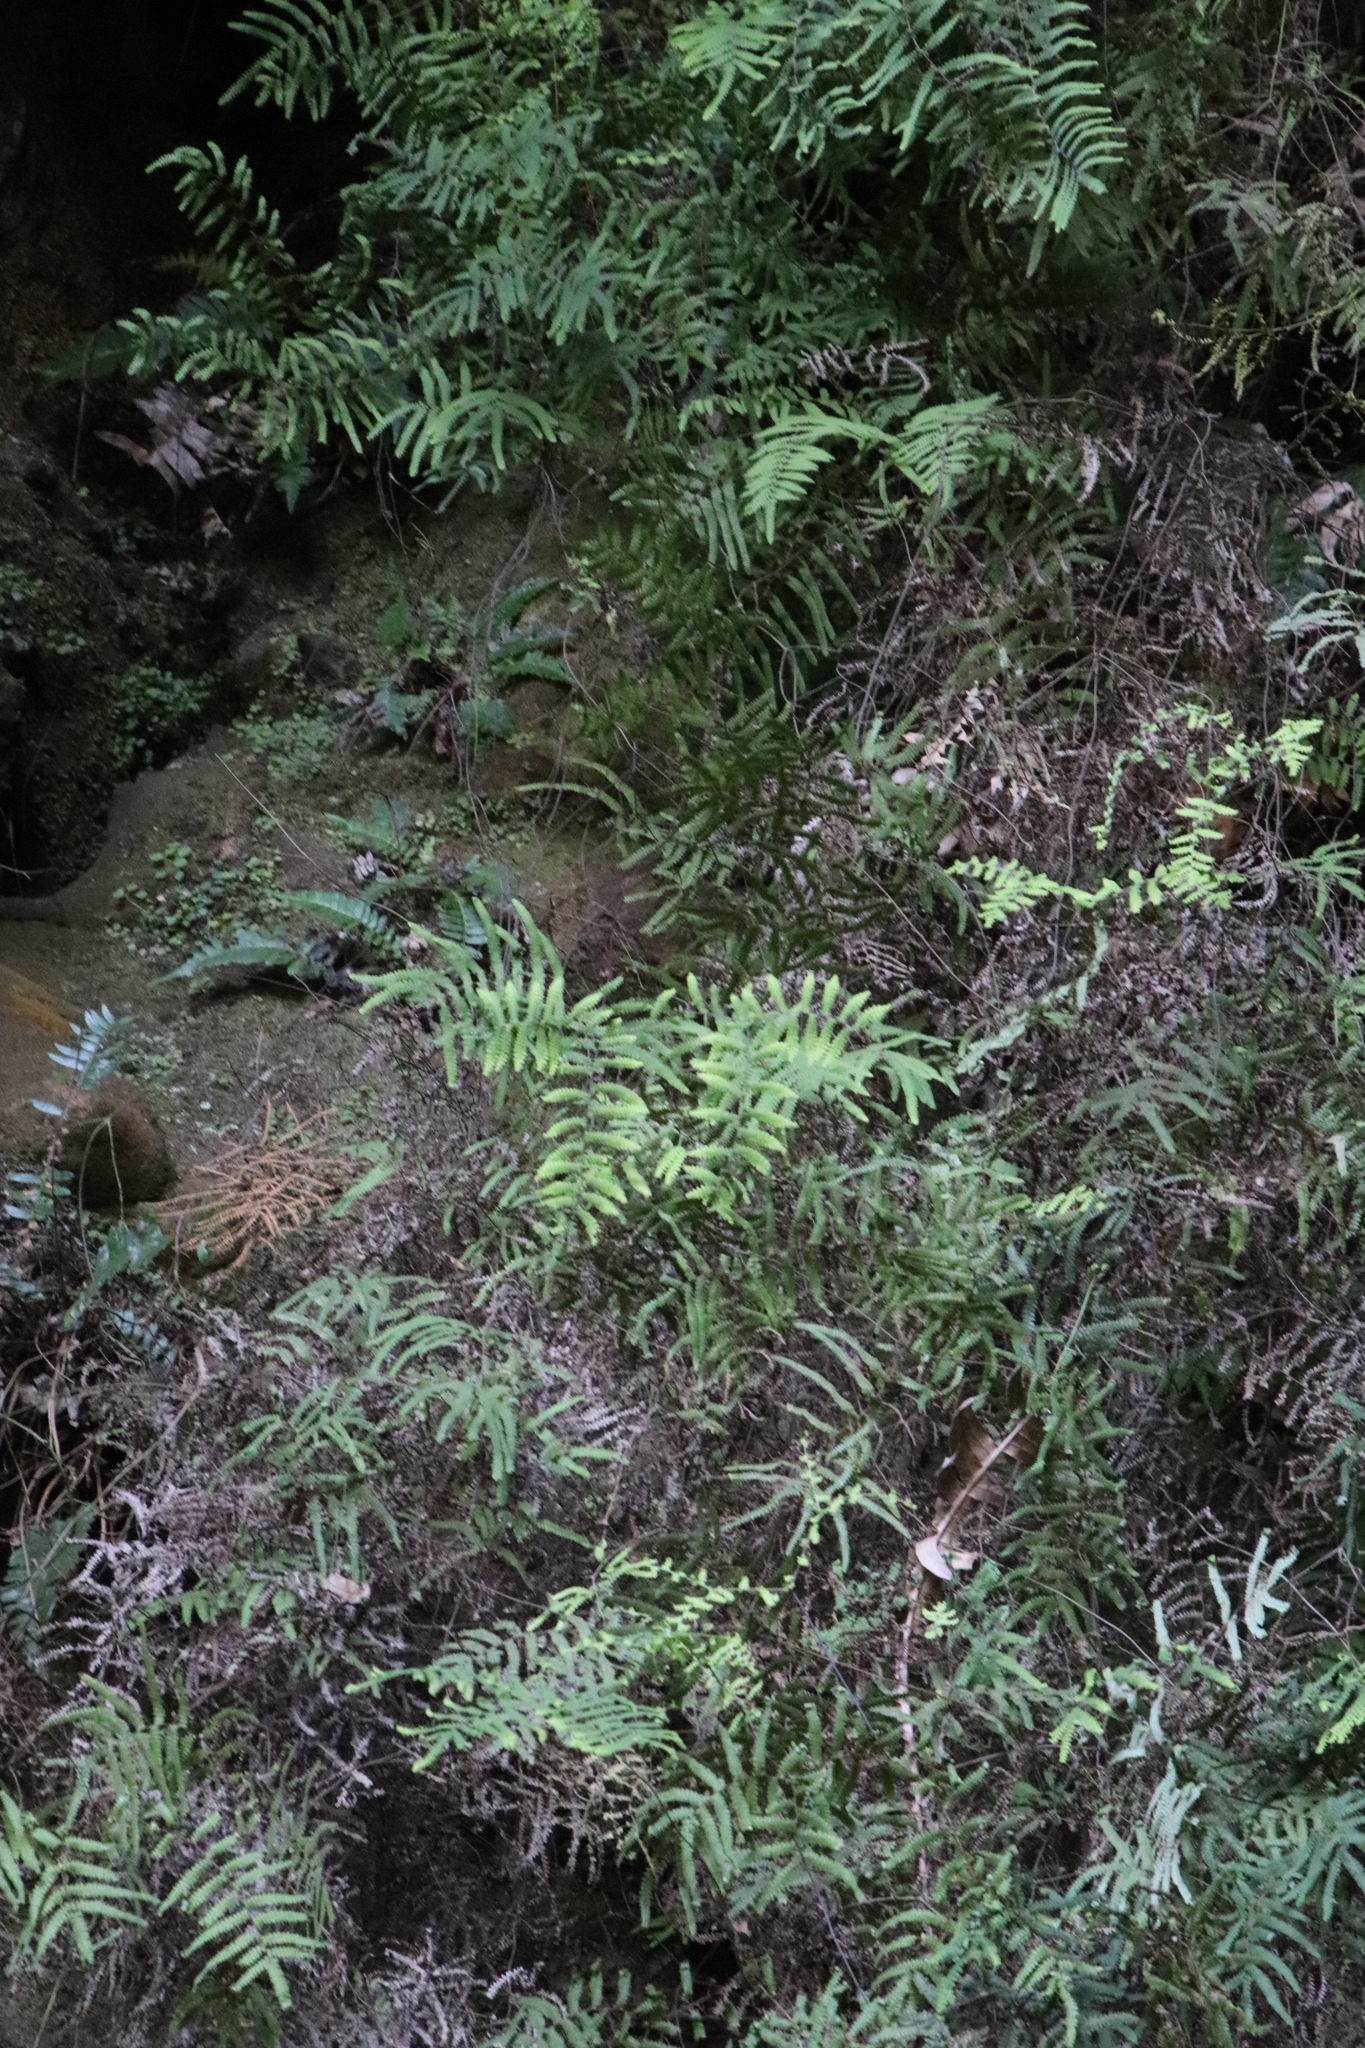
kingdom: Plantae
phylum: Tracheophyta
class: Polypodiopsida
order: Gleicheniales
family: Gleicheniaceae
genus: Gleichenia
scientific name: Gleichenia polypodioides
